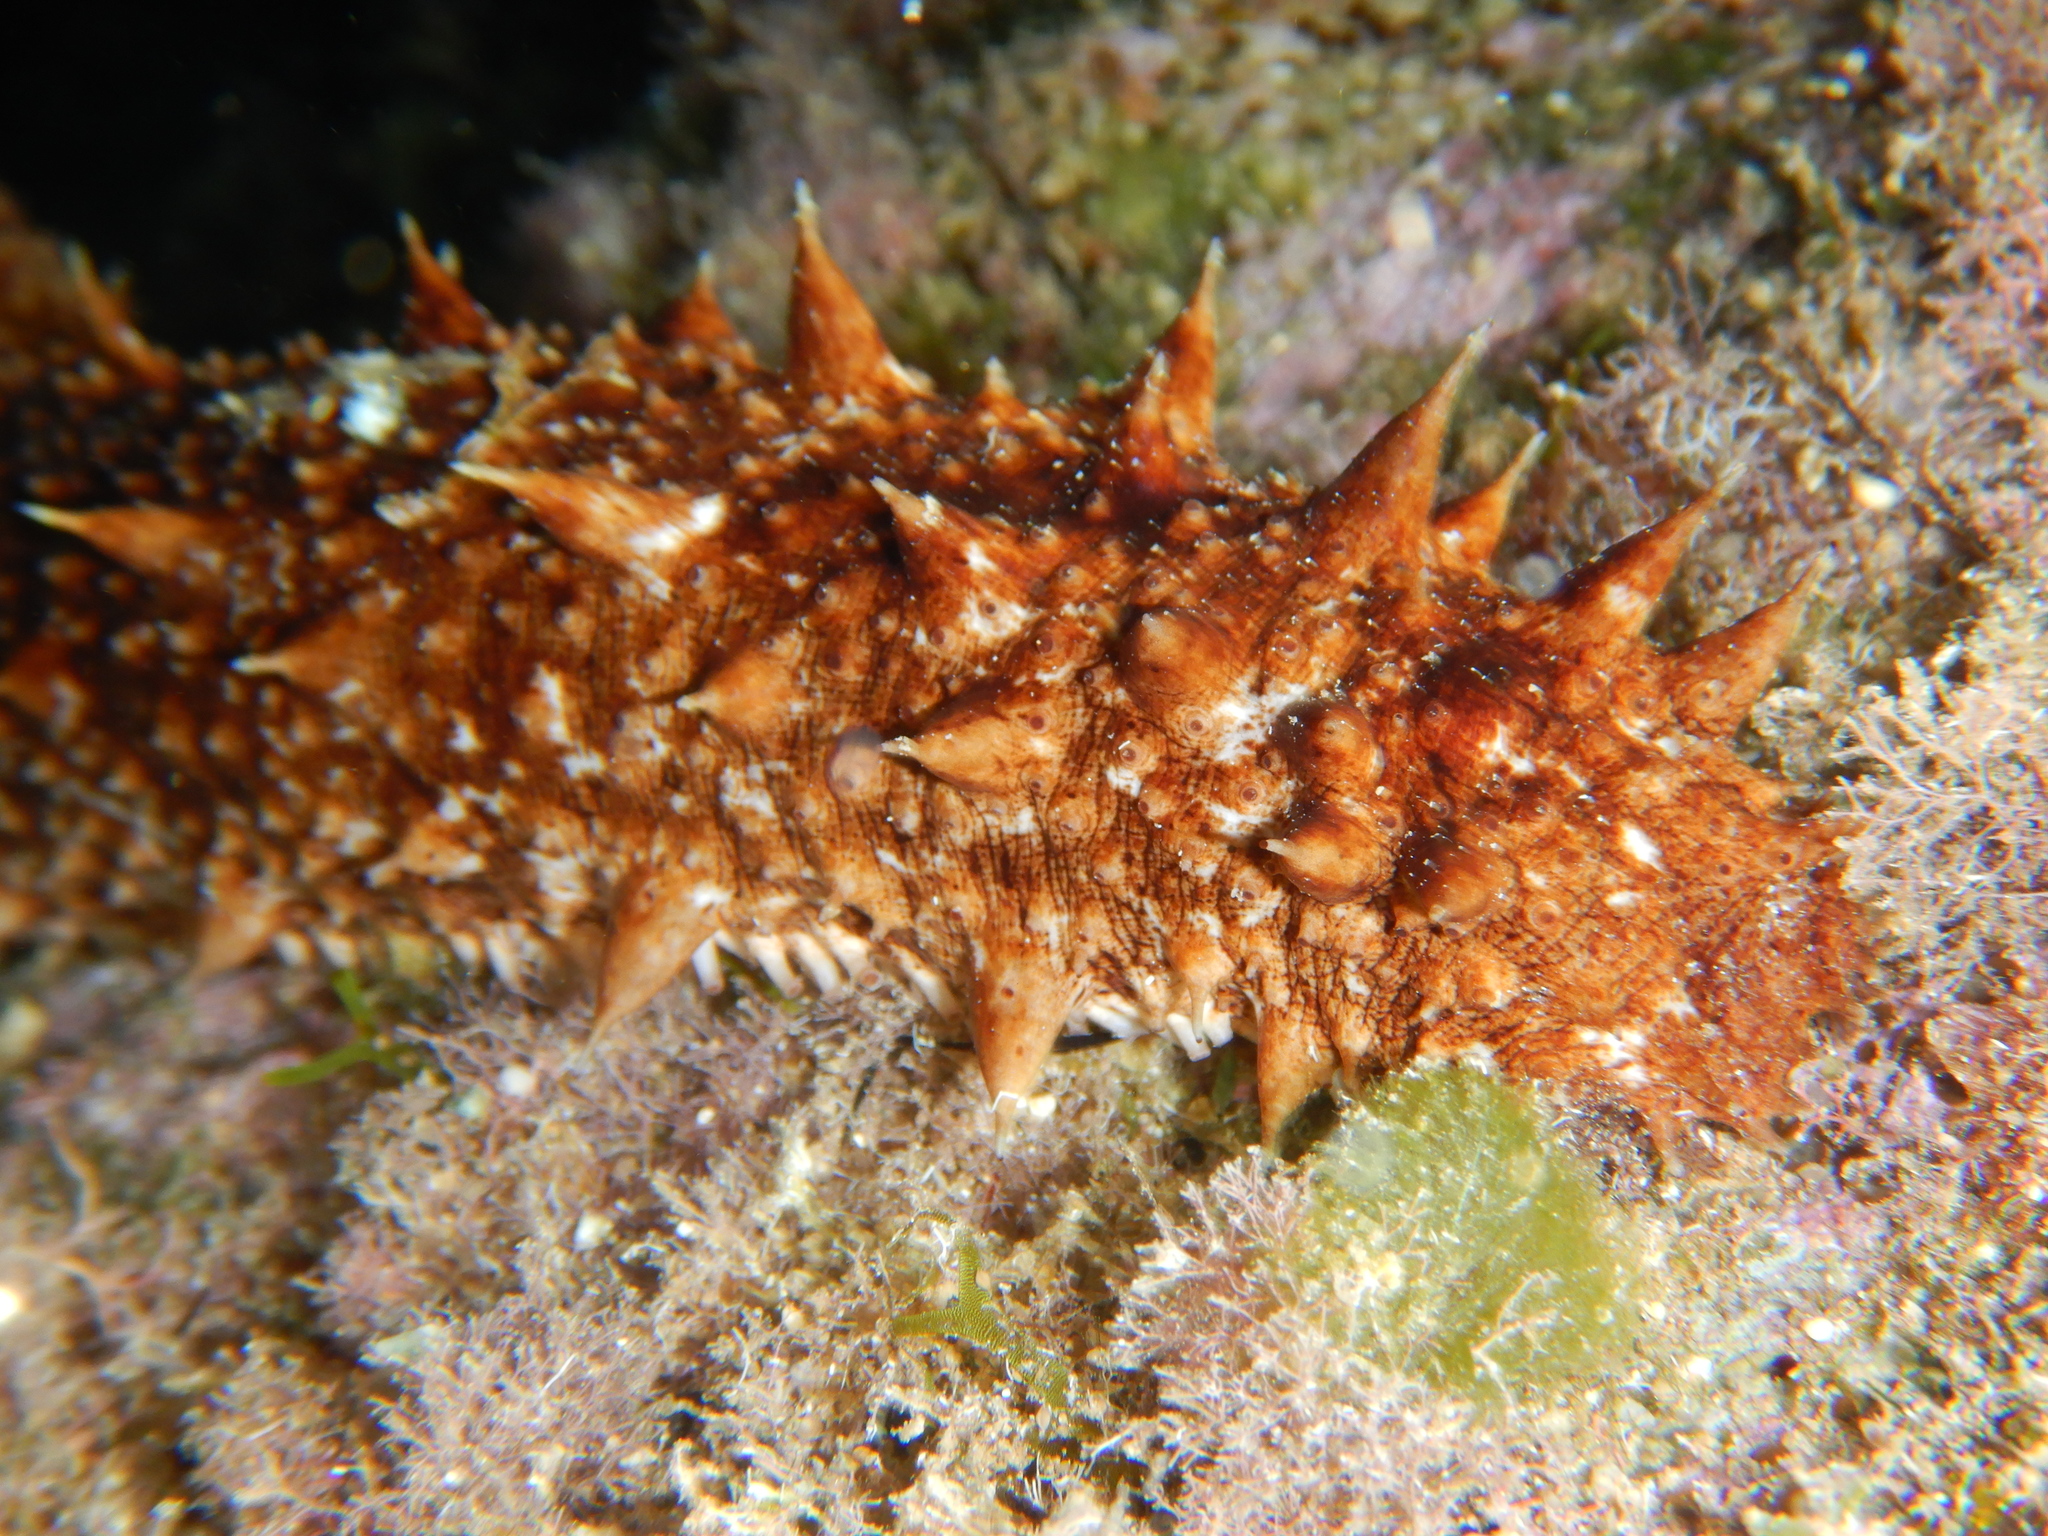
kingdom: Animalia
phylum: Echinodermata
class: Holothuroidea
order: Holothuriida
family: Holothuriidae
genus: Holothuria
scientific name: Holothuria tubulosa
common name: Cotton-spinner
